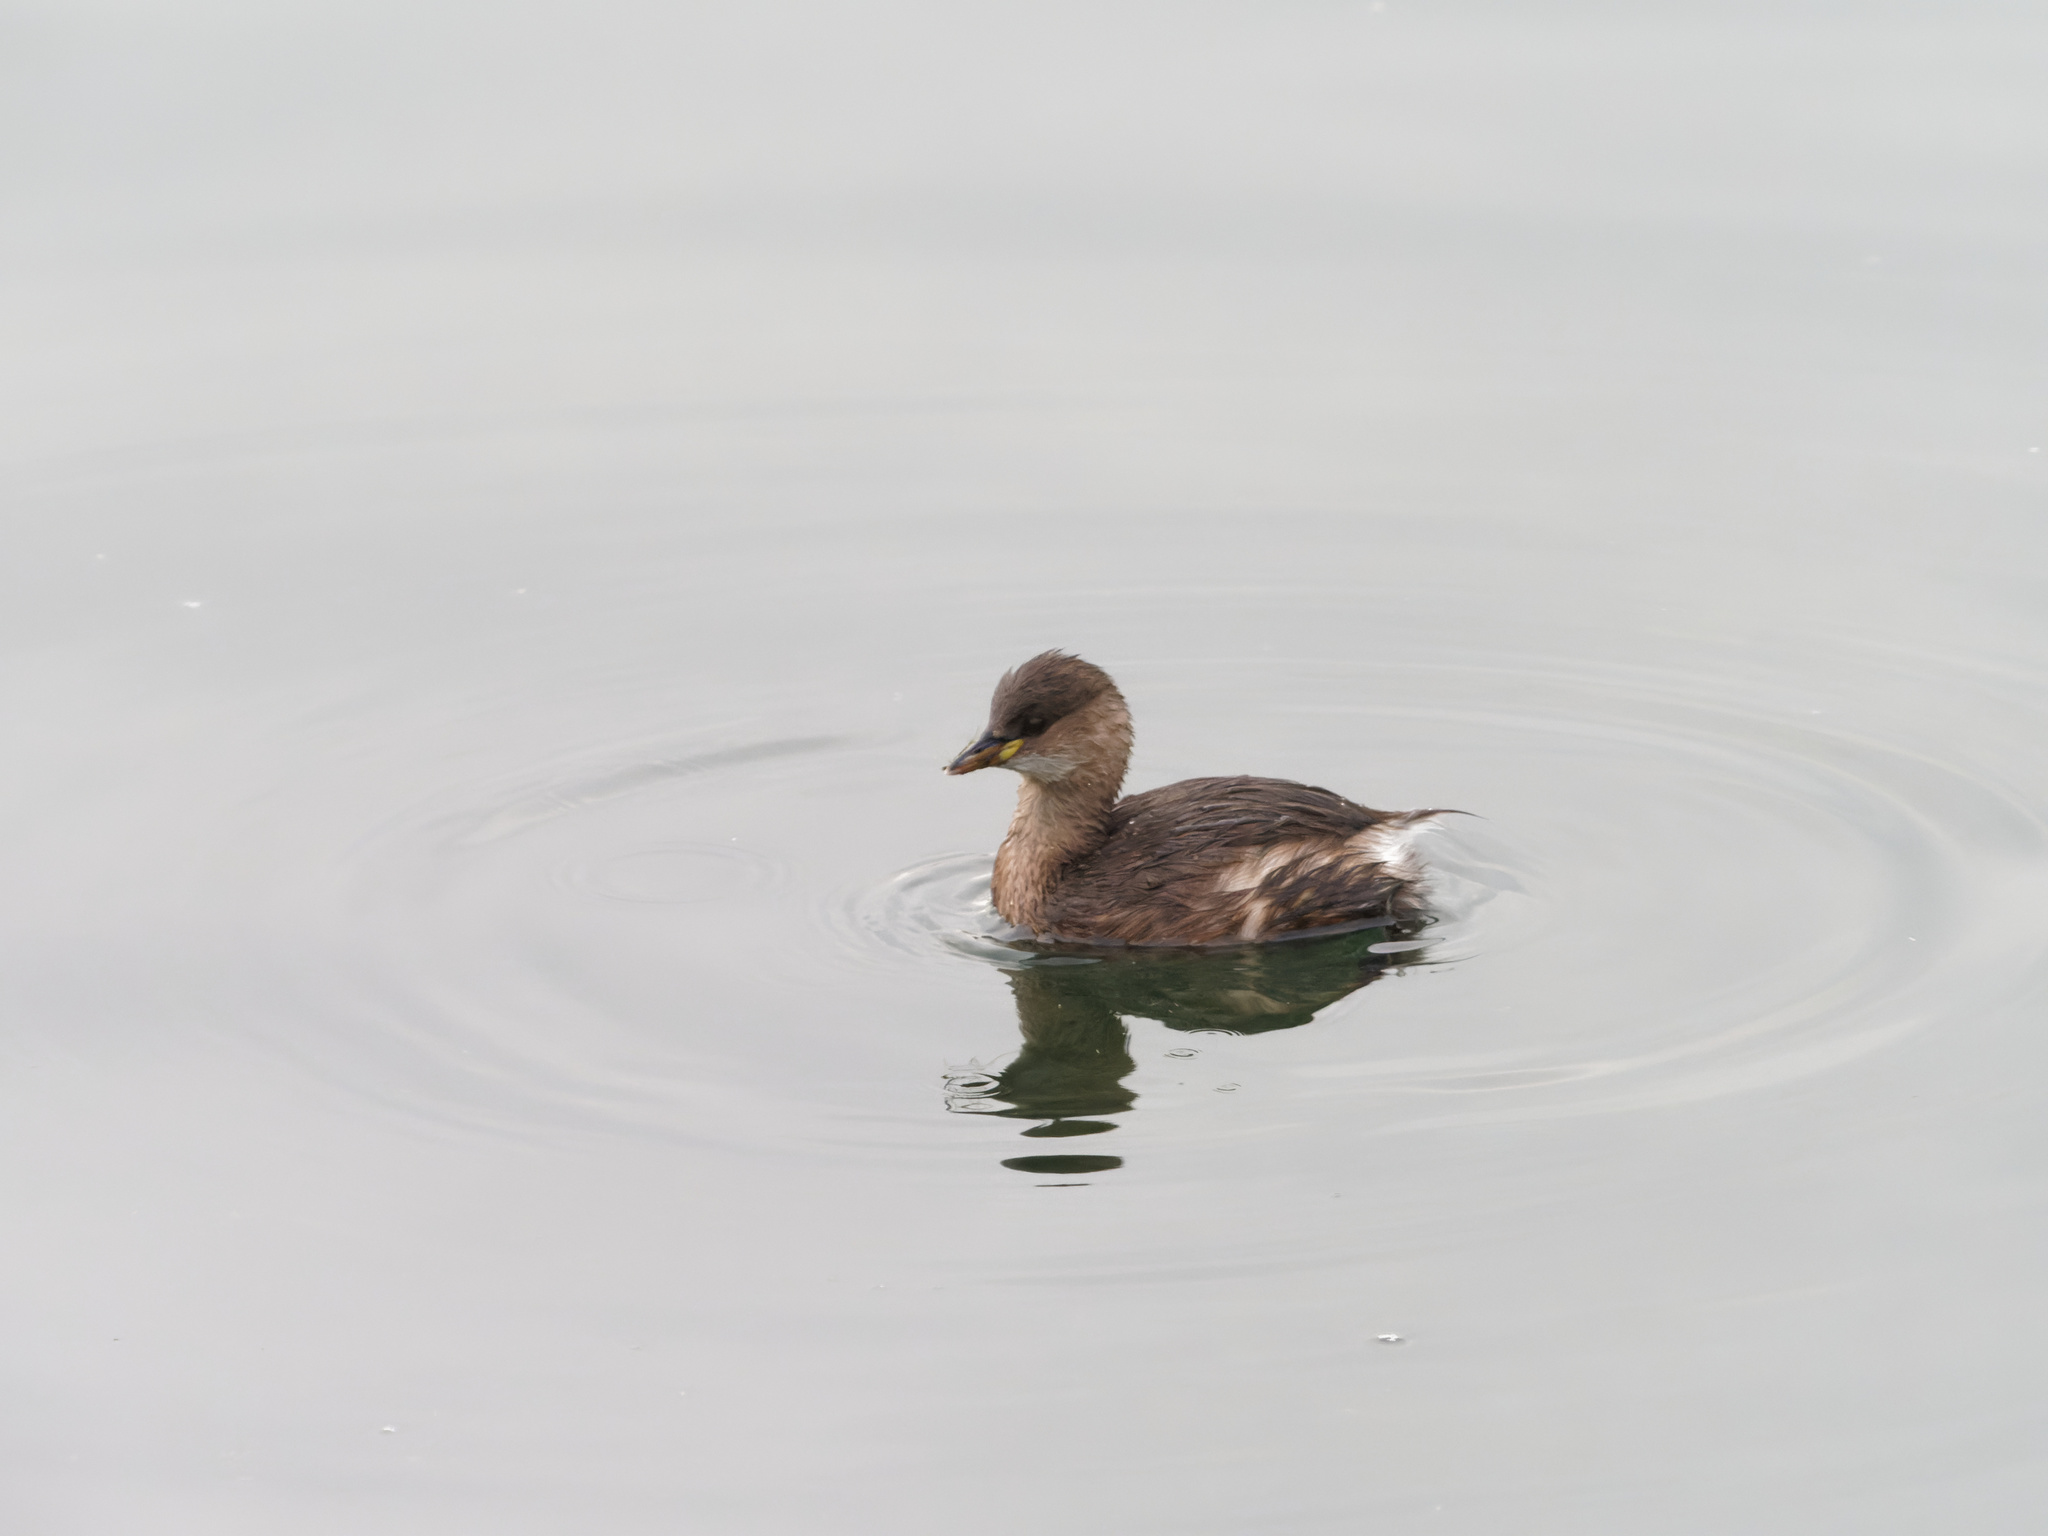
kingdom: Animalia
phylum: Chordata
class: Aves
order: Podicipediformes
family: Podicipedidae
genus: Tachybaptus
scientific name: Tachybaptus ruficollis
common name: Little grebe
